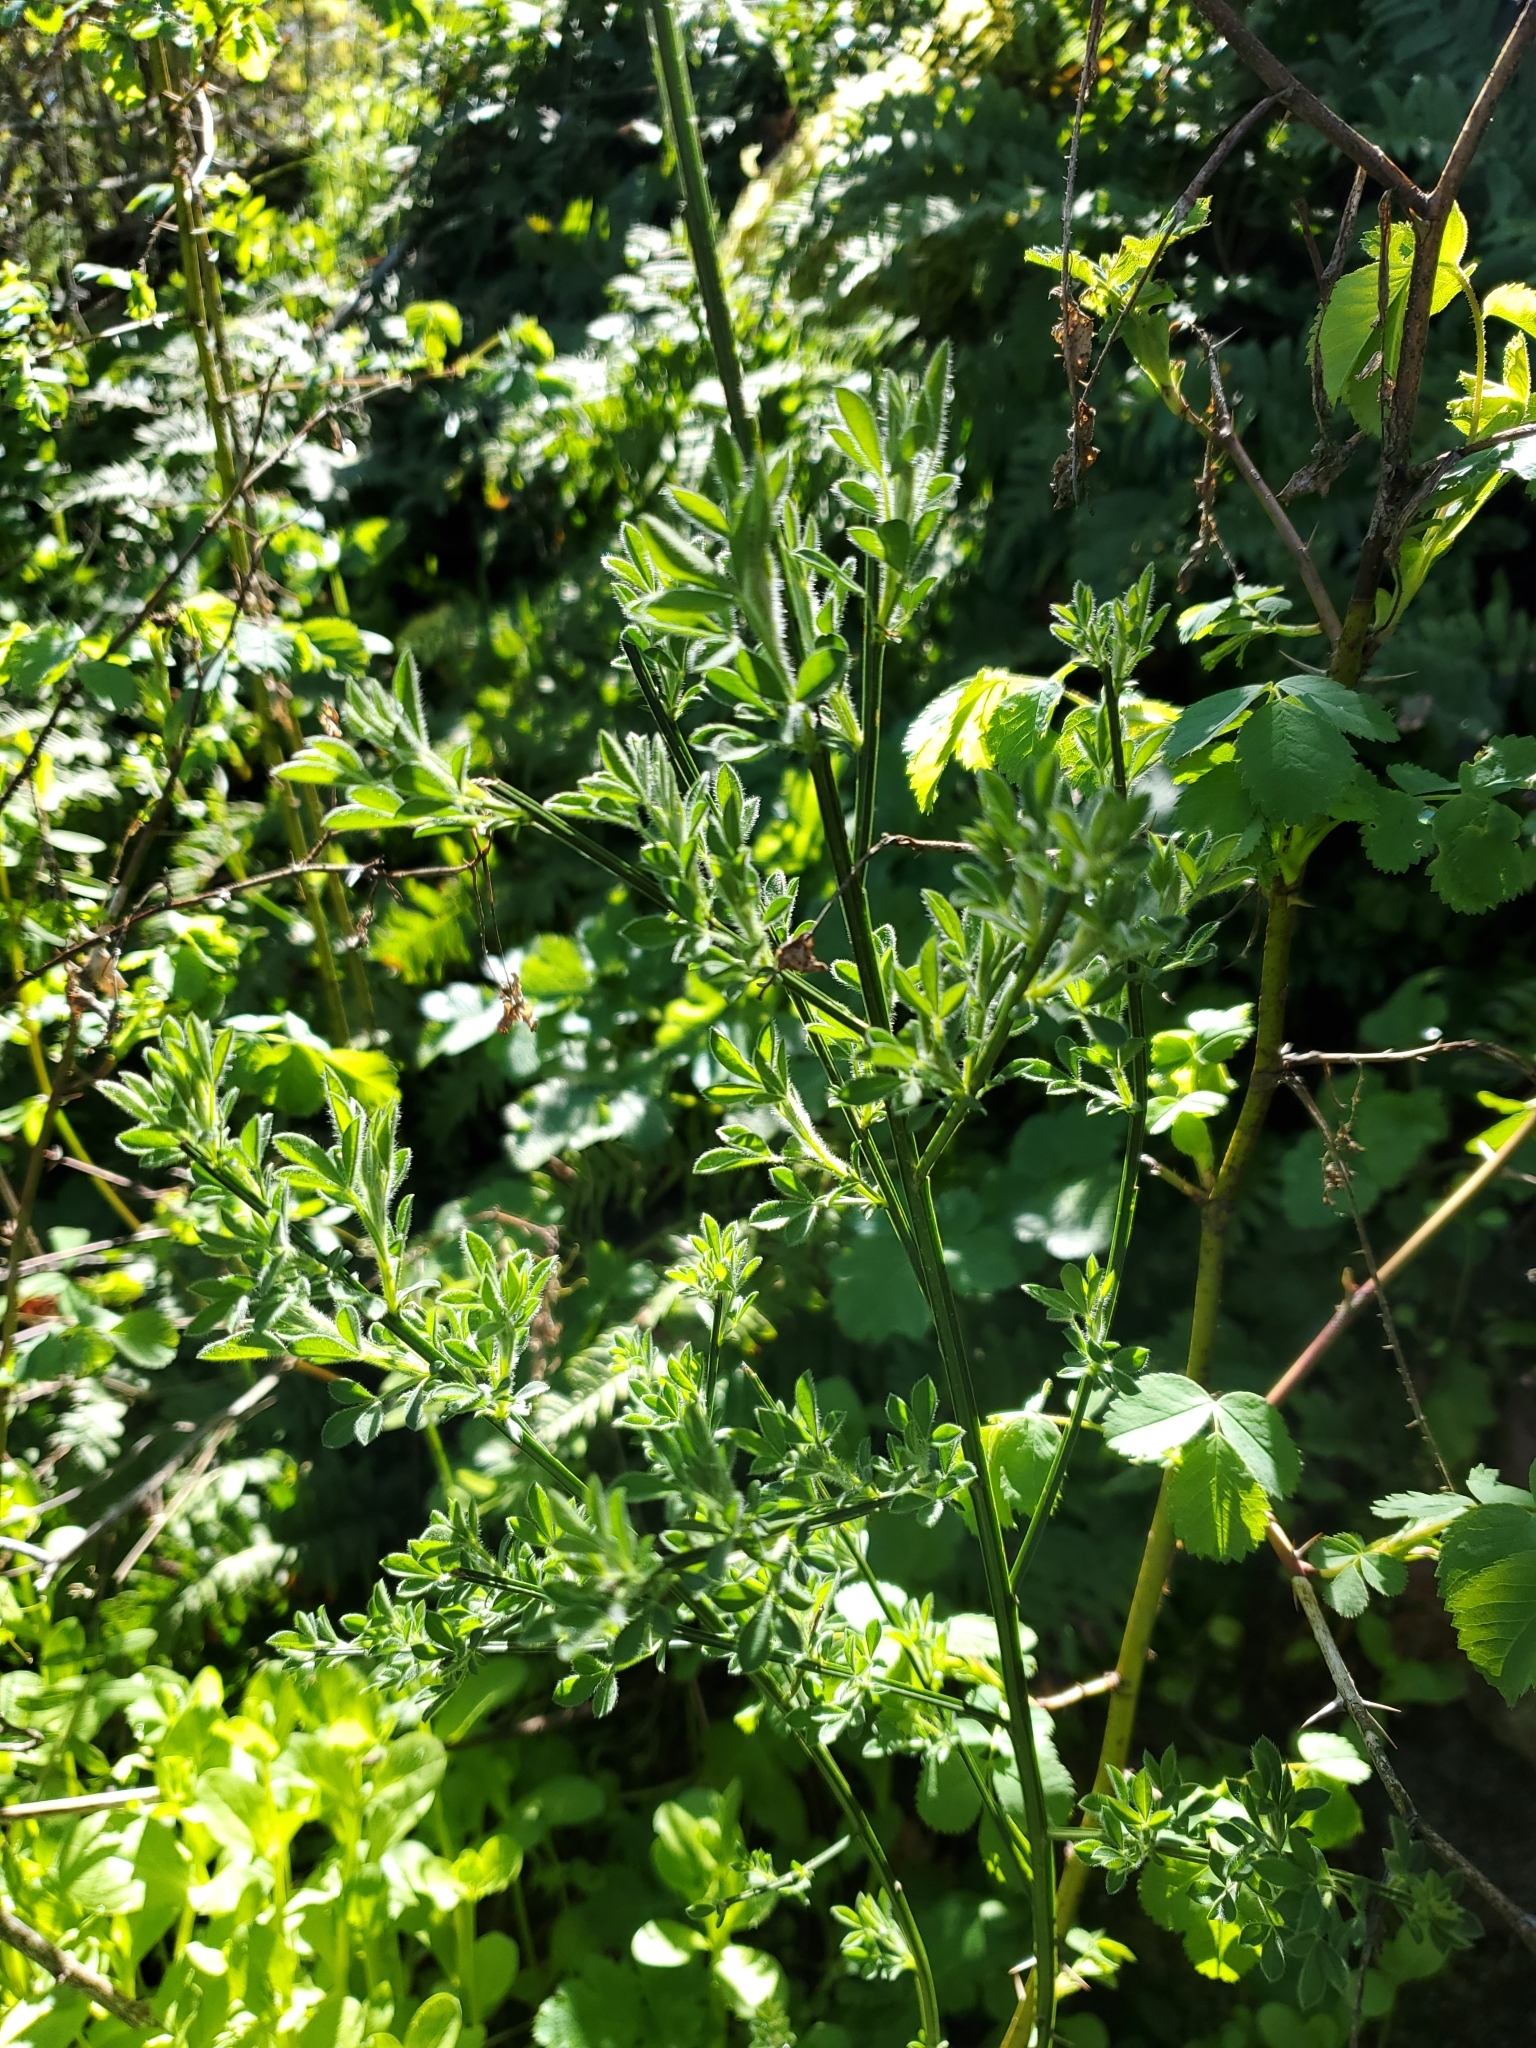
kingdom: Plantae
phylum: Tracheophyta
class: Magnoliopsida
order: Fabales
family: Fabaceae
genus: Cytisus
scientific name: Cytisus scoparius
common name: Scotch broom
